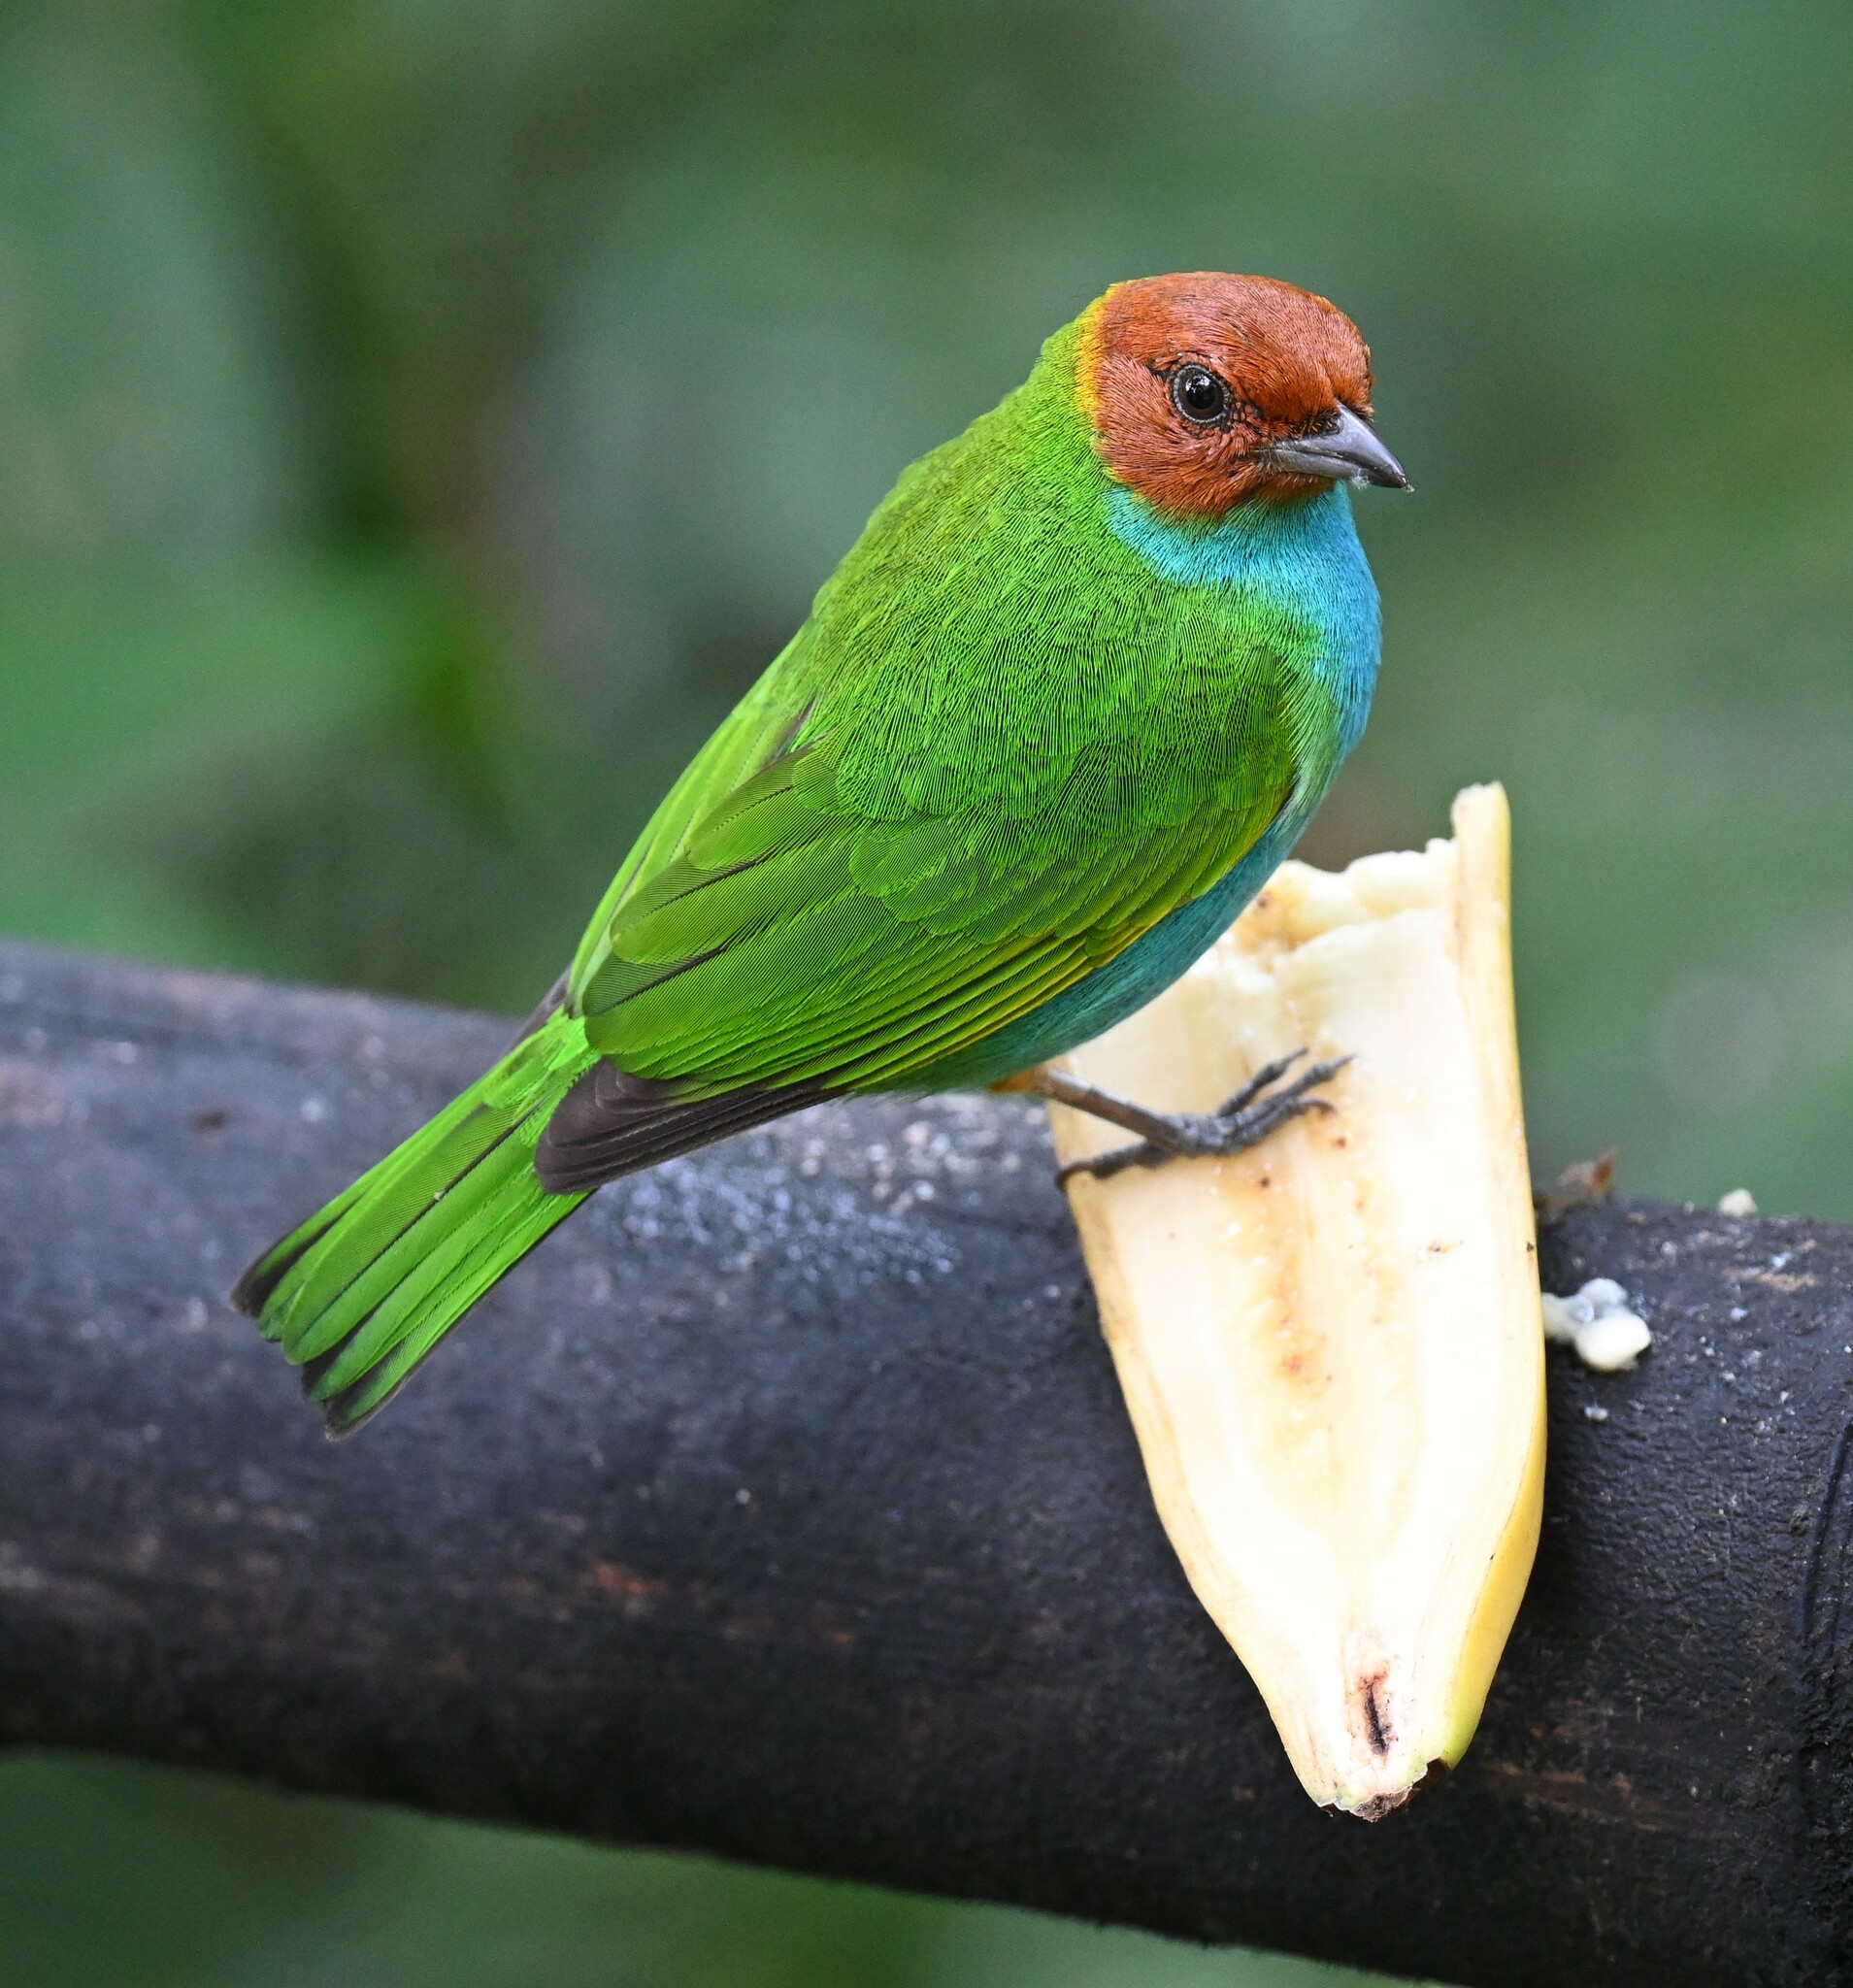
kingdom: Animalia
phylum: Chordata
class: Aves
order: Passeriformes
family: Thraupidae
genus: Tangara
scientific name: Tangara gyrola
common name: Bay-headed tanager
